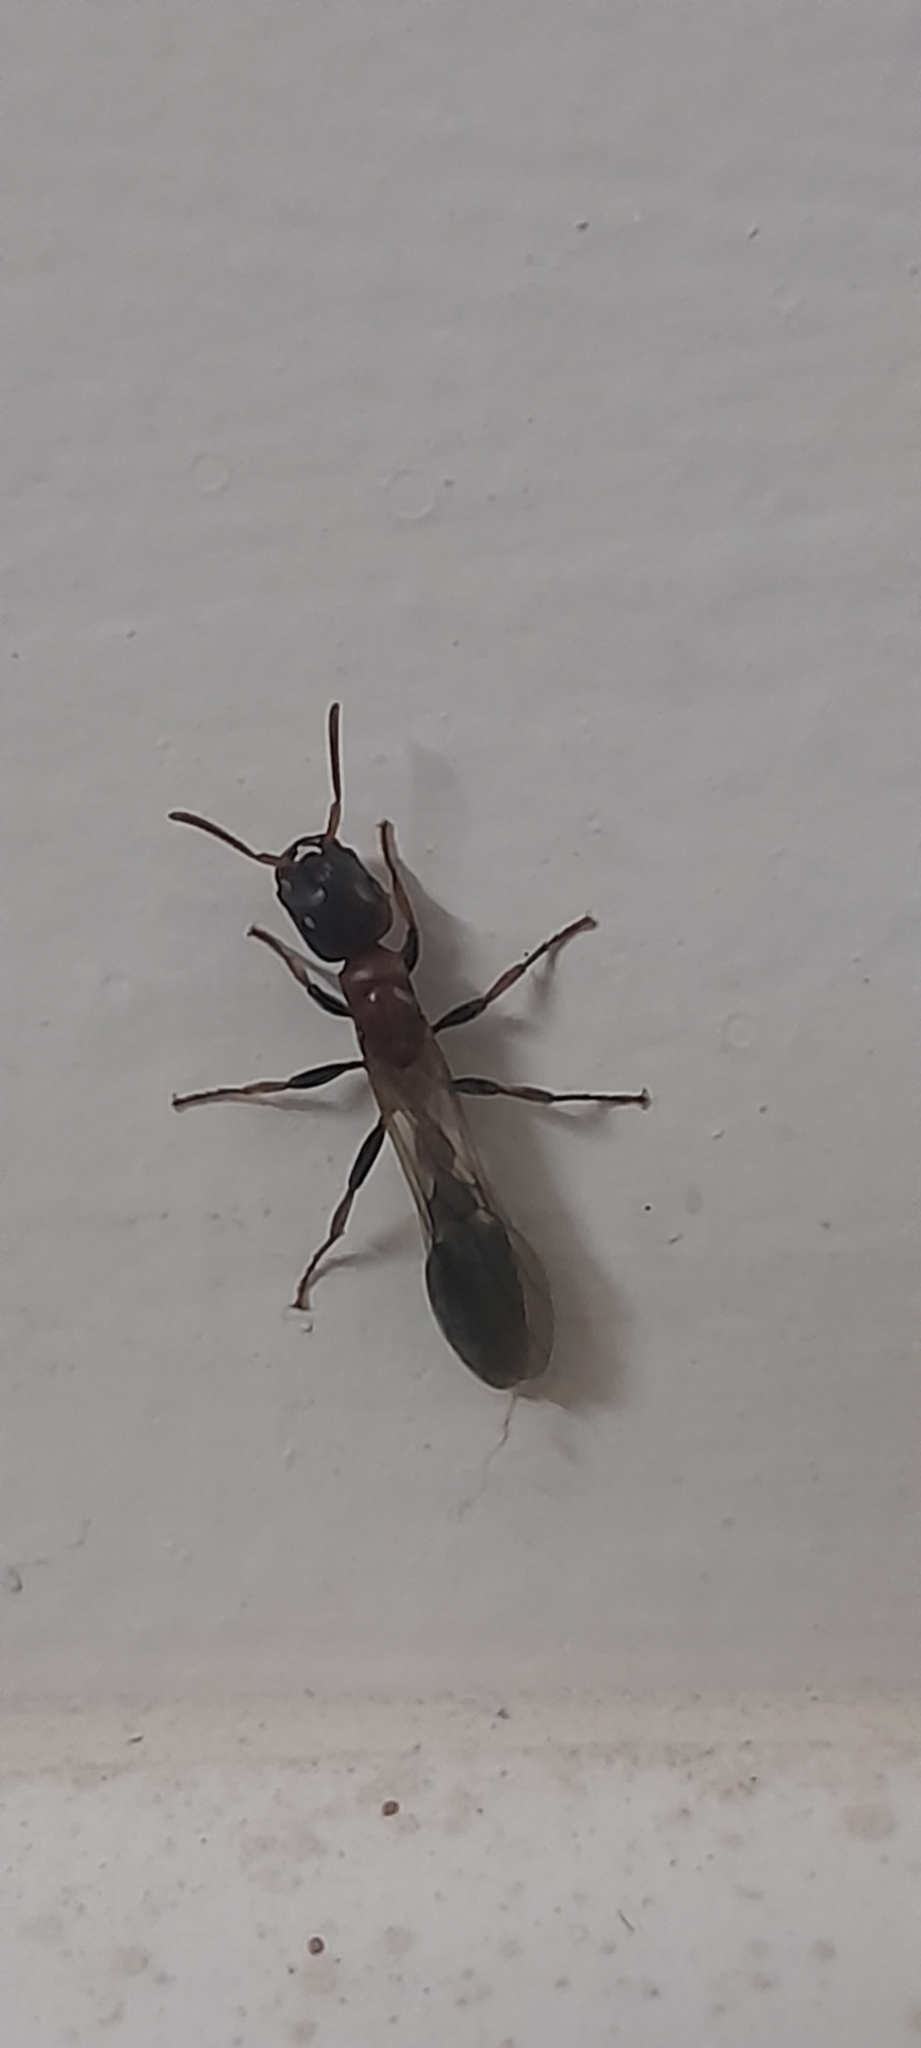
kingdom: Animalia
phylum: Arthropoda
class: Insecta
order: Hymenoptera
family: Formicidae
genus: Tetraponera
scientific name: Tetraponera rufonigra
